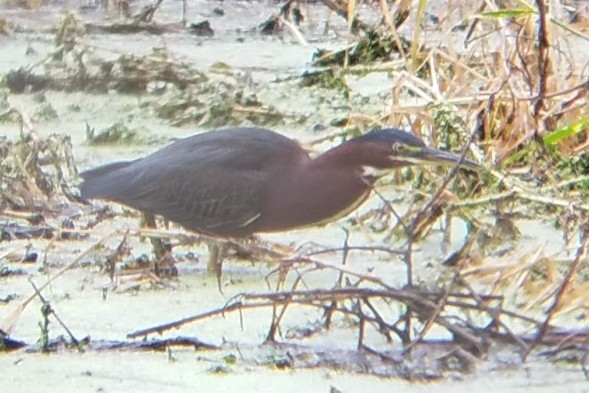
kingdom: Animalia
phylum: Chordata
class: Aves
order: Pelecaniformes
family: Ardeidae
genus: Butorides
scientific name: Butorides virescens
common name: Green heron
